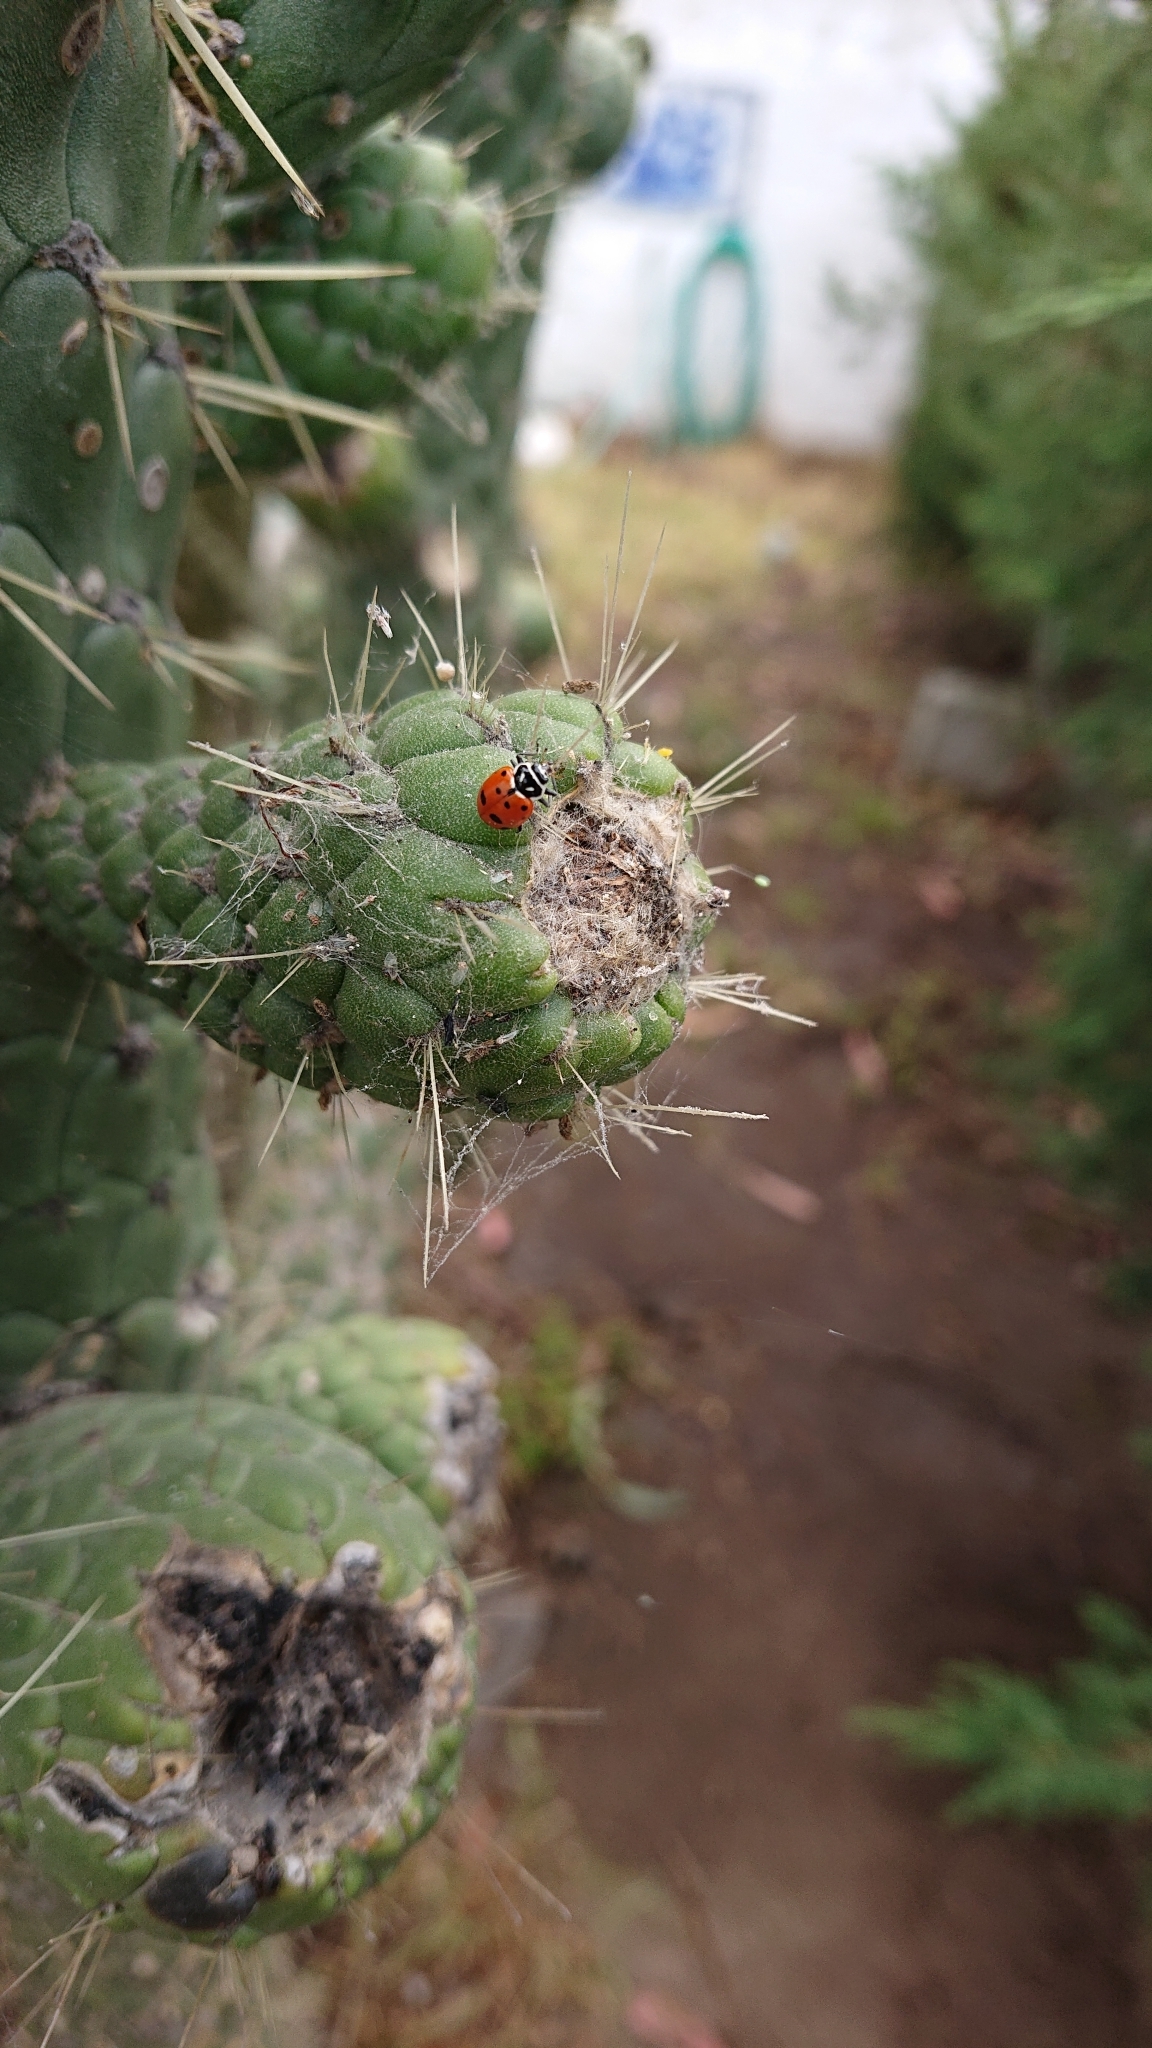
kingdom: Animalia
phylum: Arthropoda
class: Insecta
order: Coleoptera
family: Coccinellidae
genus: Hippodamia
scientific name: Hippodamia convergens
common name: Convergent lady beetle
